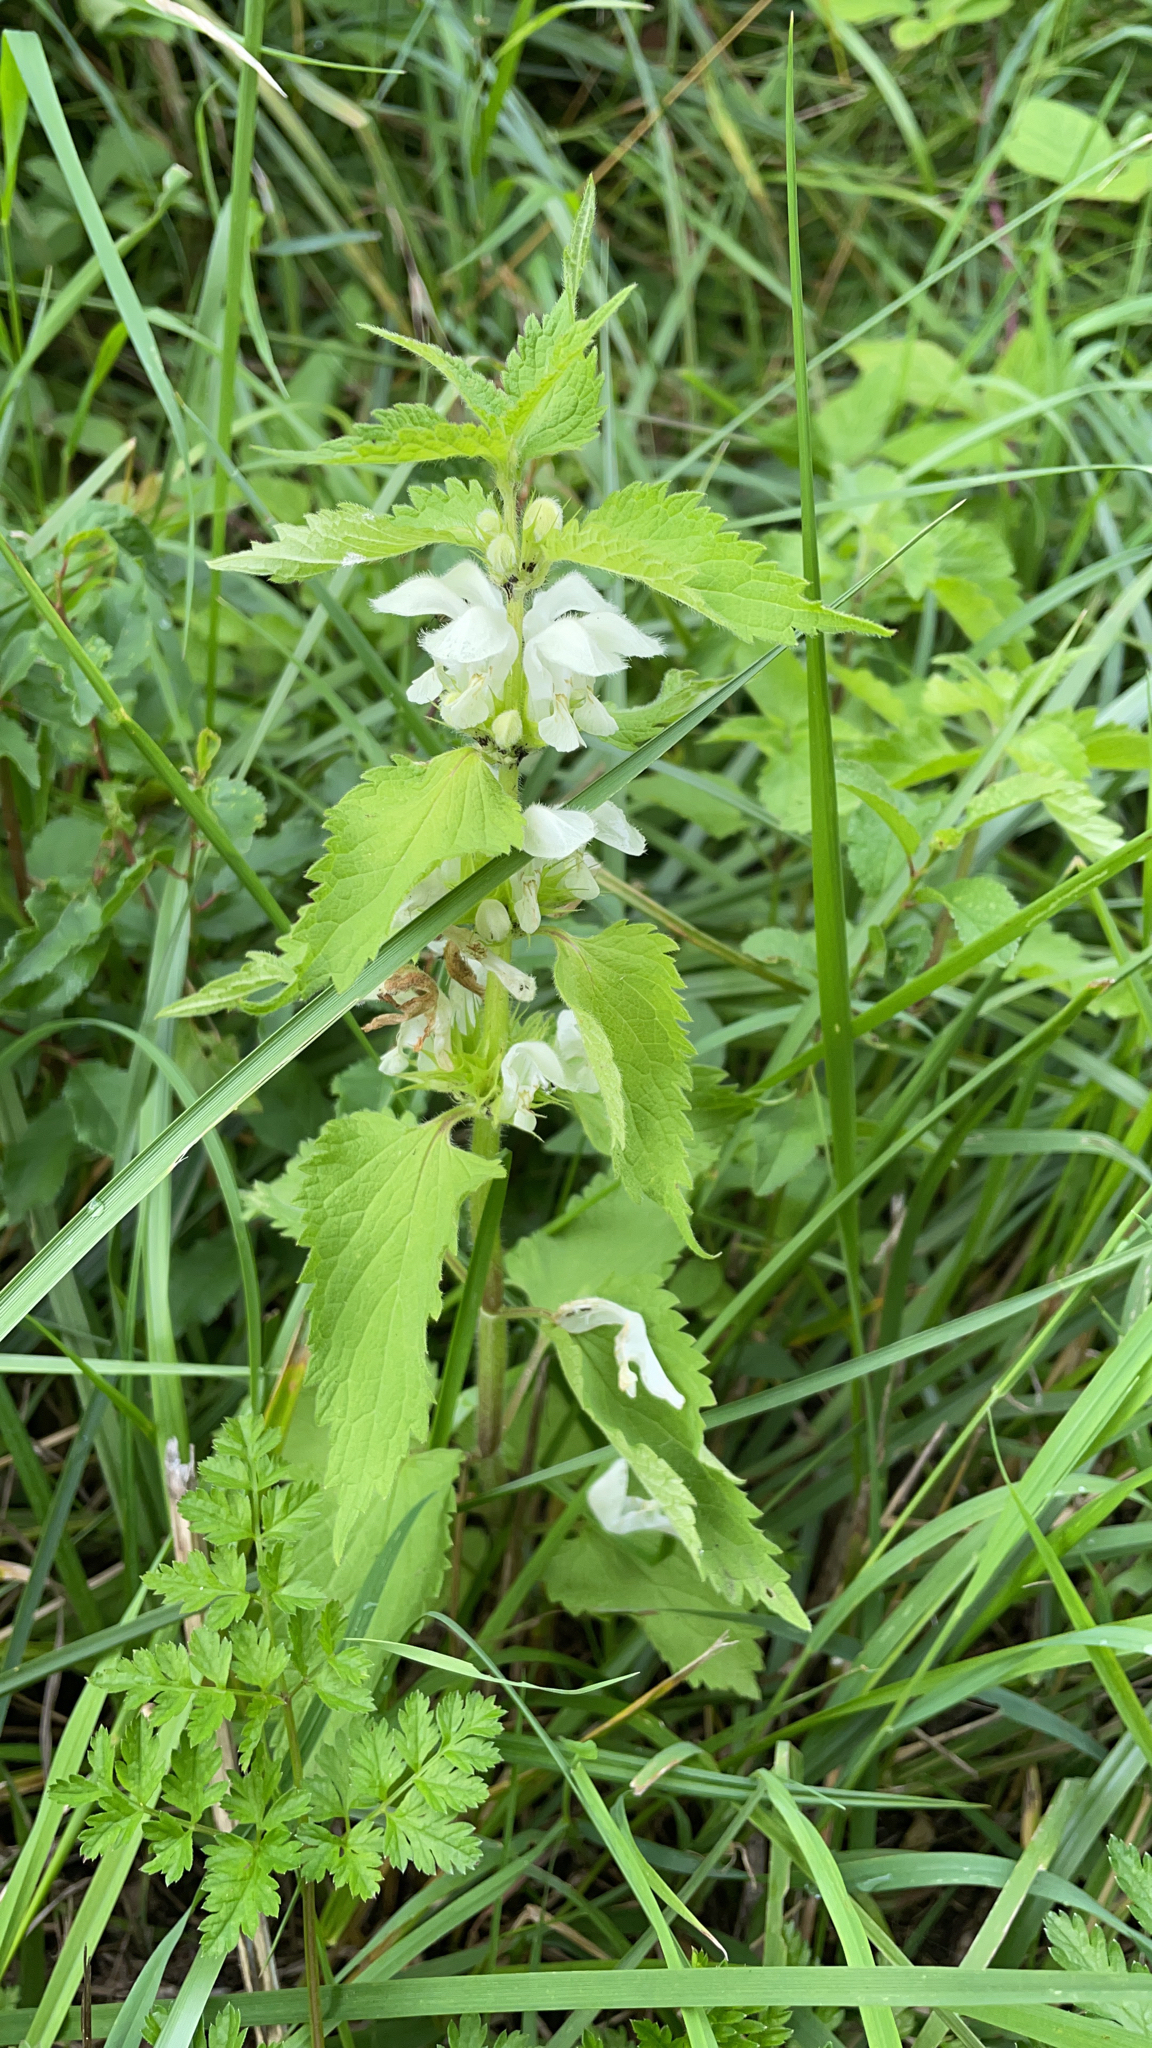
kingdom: Plantae
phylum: Tracheophyta
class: Magnoliopsida
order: Lamiales
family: Lamiaceae
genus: Lamium
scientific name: Lamium album
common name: White dead-nettle
